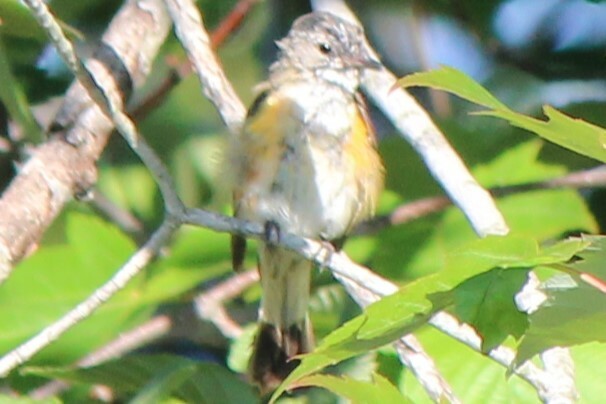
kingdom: Animalia
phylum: Chordata
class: Aves
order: Passeriformes
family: Parulidae
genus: Setophaga
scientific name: Setophaga ruticilla
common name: American redstart
